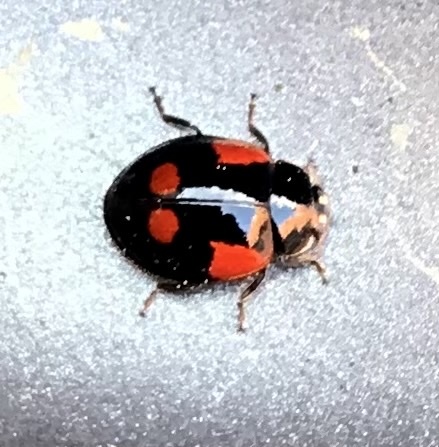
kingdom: Animalia
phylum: Arthropoda
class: Insecta
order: Coleoptera
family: Coccinellidae
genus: Adalia
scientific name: Adalia bipunctata
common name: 2-spot ladybird
